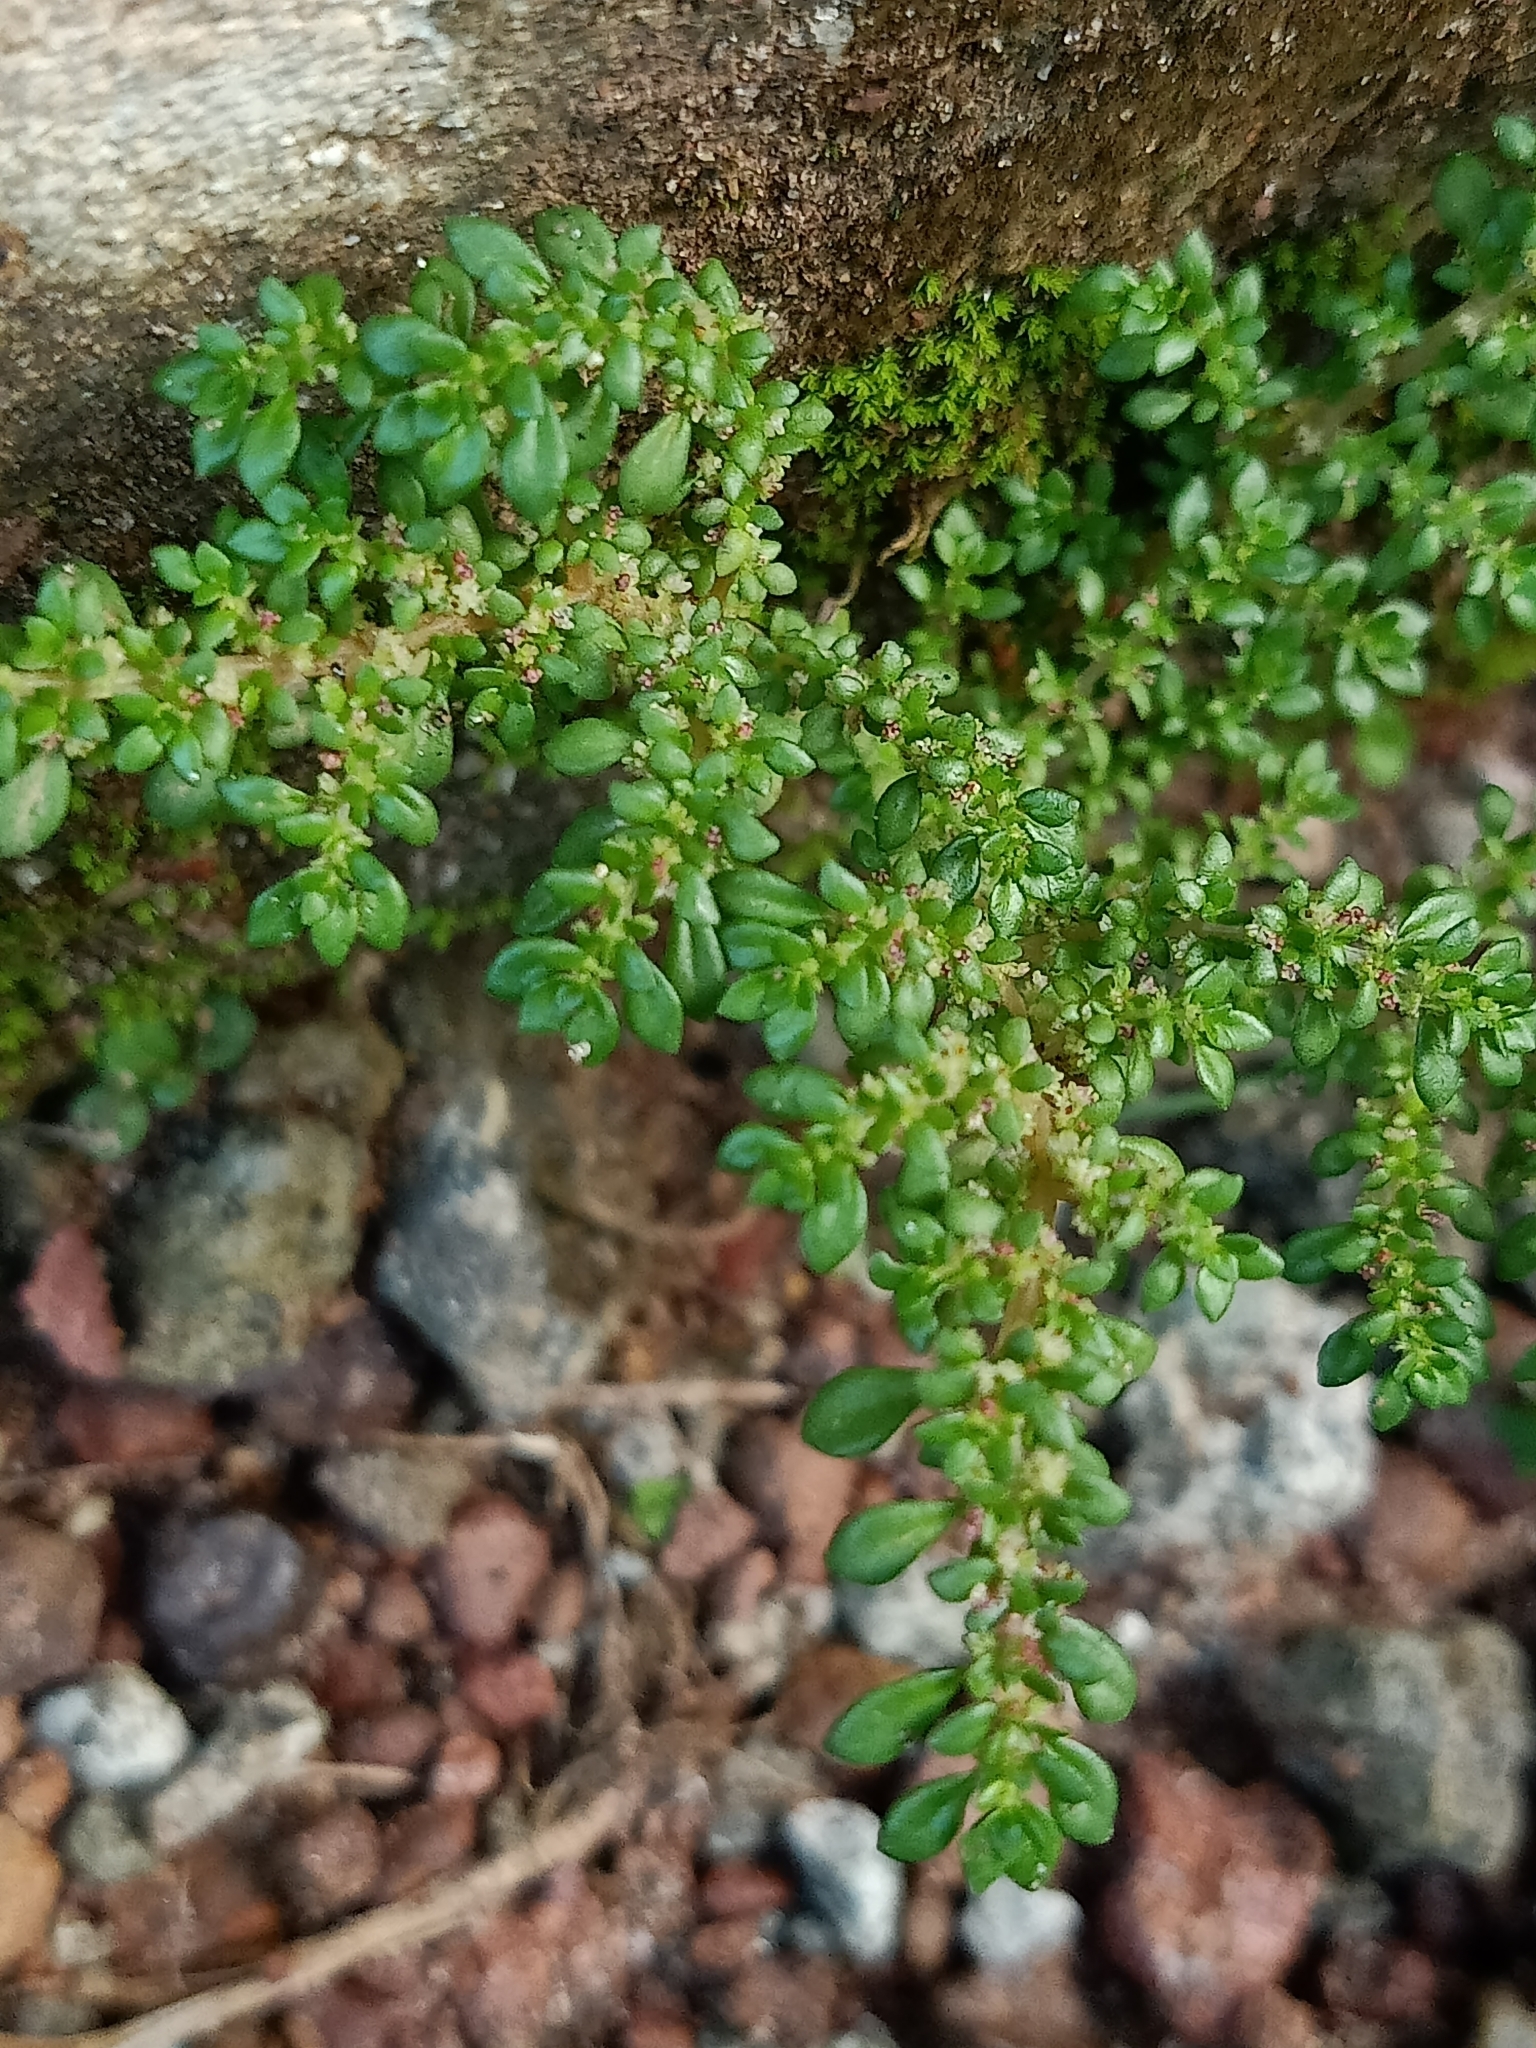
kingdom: Plantae
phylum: Tracheophyta
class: Magnoliopsida
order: Rosales
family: Urticaceae
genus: Pilea
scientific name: Pilea microphylla
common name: Artillery-plant
